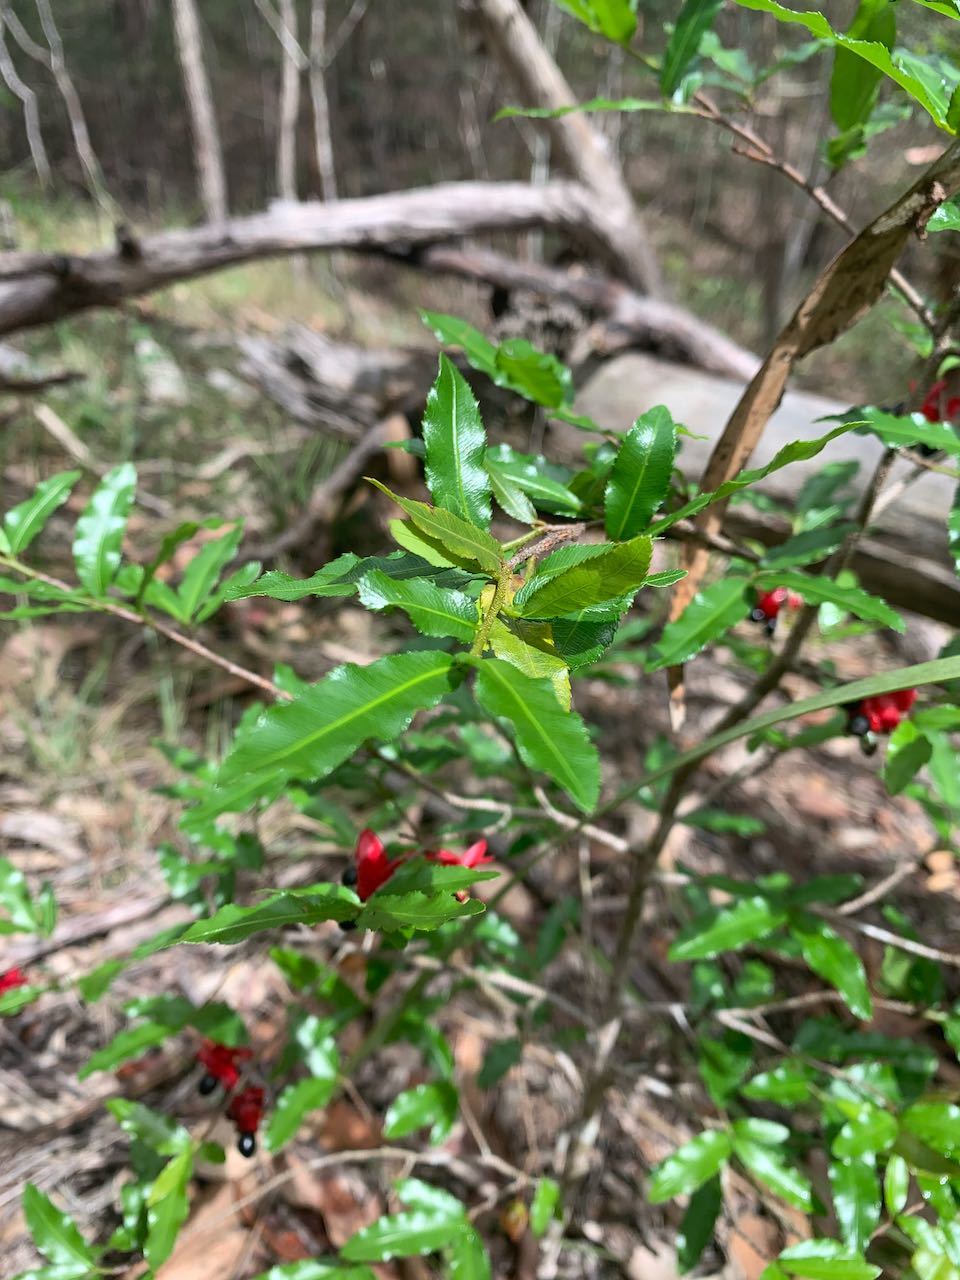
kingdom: Plantae
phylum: Tracheophyta
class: Magnoliopsida
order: Malpighiales
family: Ochnaceae
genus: Ochna
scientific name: Ochna serrulata
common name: Mickey mouse plant
